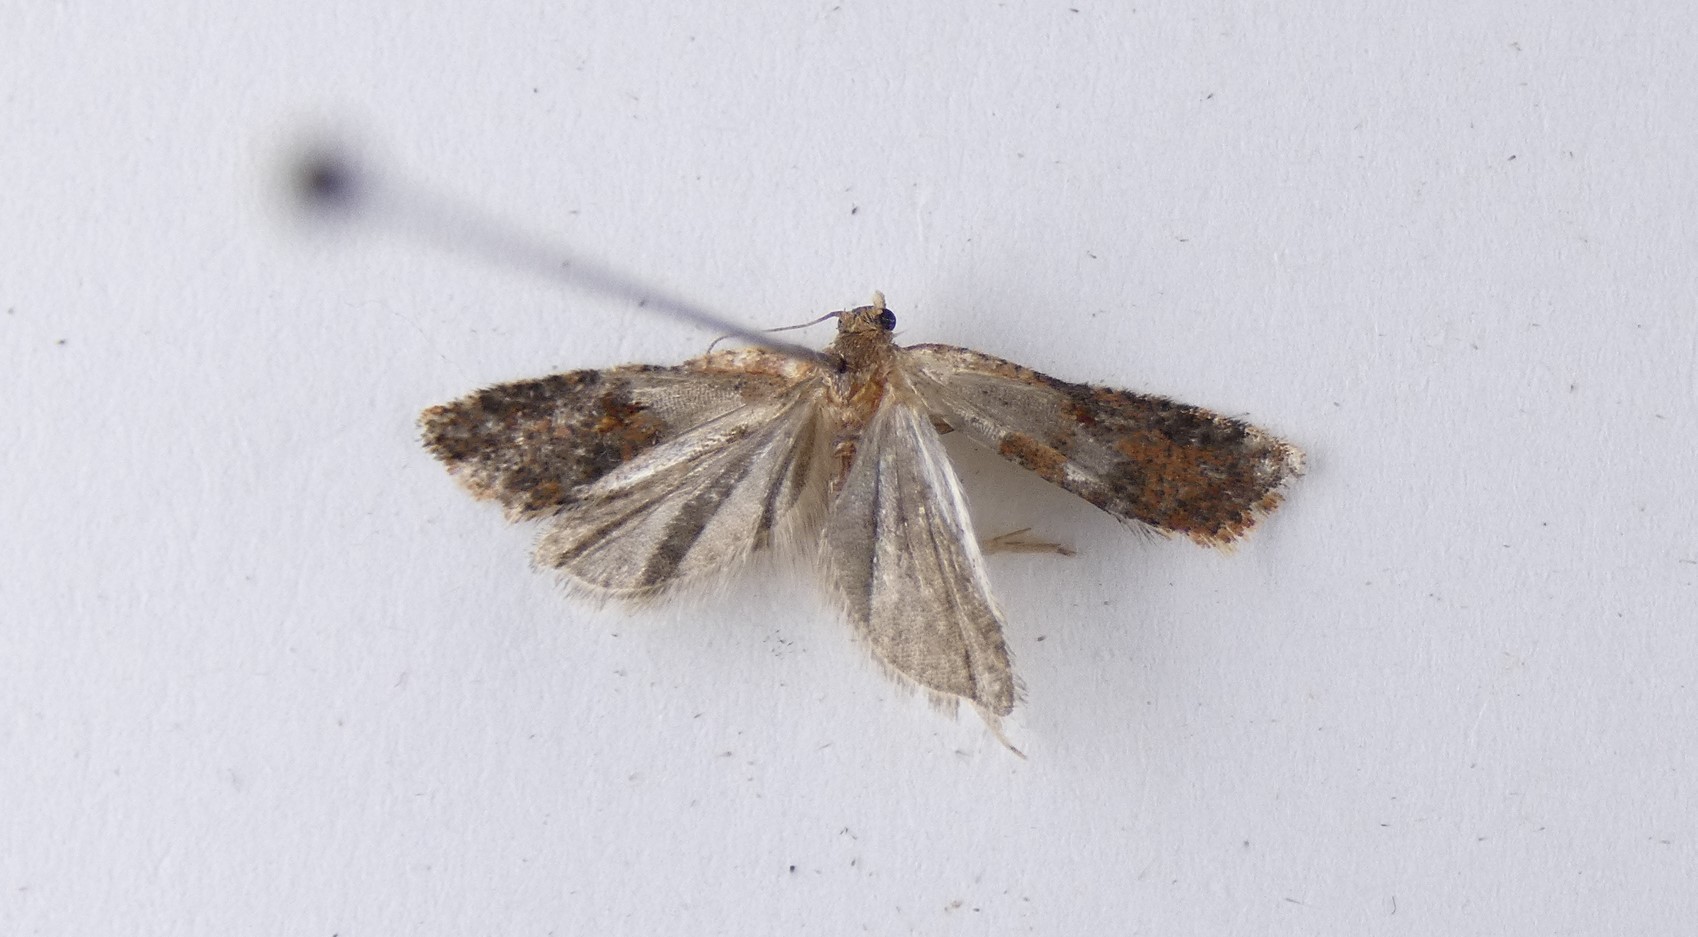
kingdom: Animalia
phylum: Arthropoda
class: Insecta
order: Lepidoptera
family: Tortricidae
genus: Capua
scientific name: Capua semiferana
